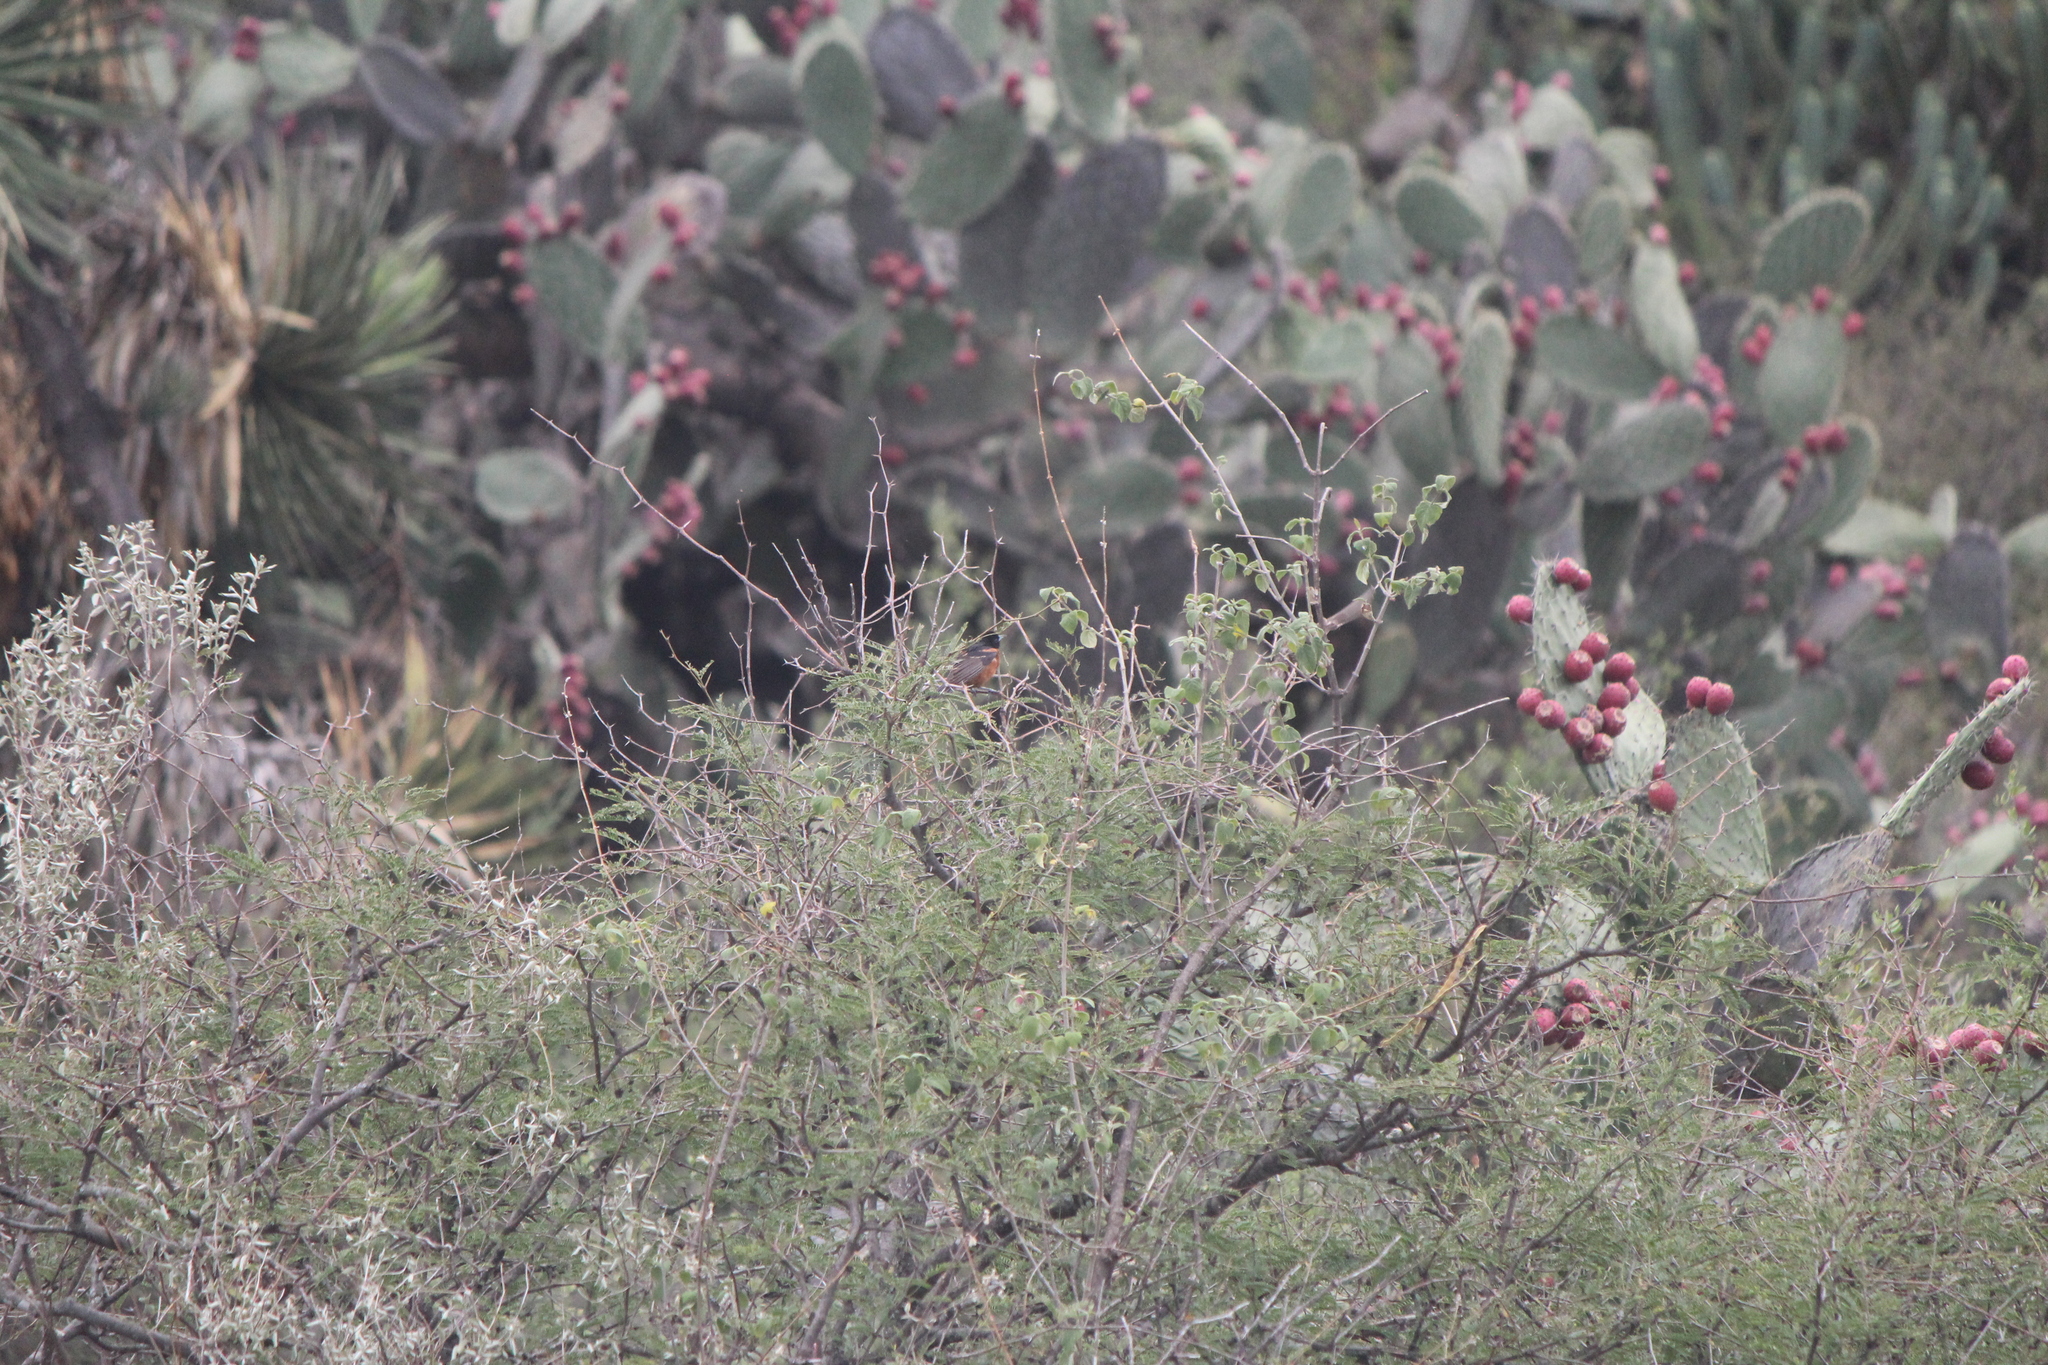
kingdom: Animalia
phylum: Chordata
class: Aves
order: Passeriformes
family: Icteridae
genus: Icterus
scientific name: Icterus spurius
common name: Orchard oriole
